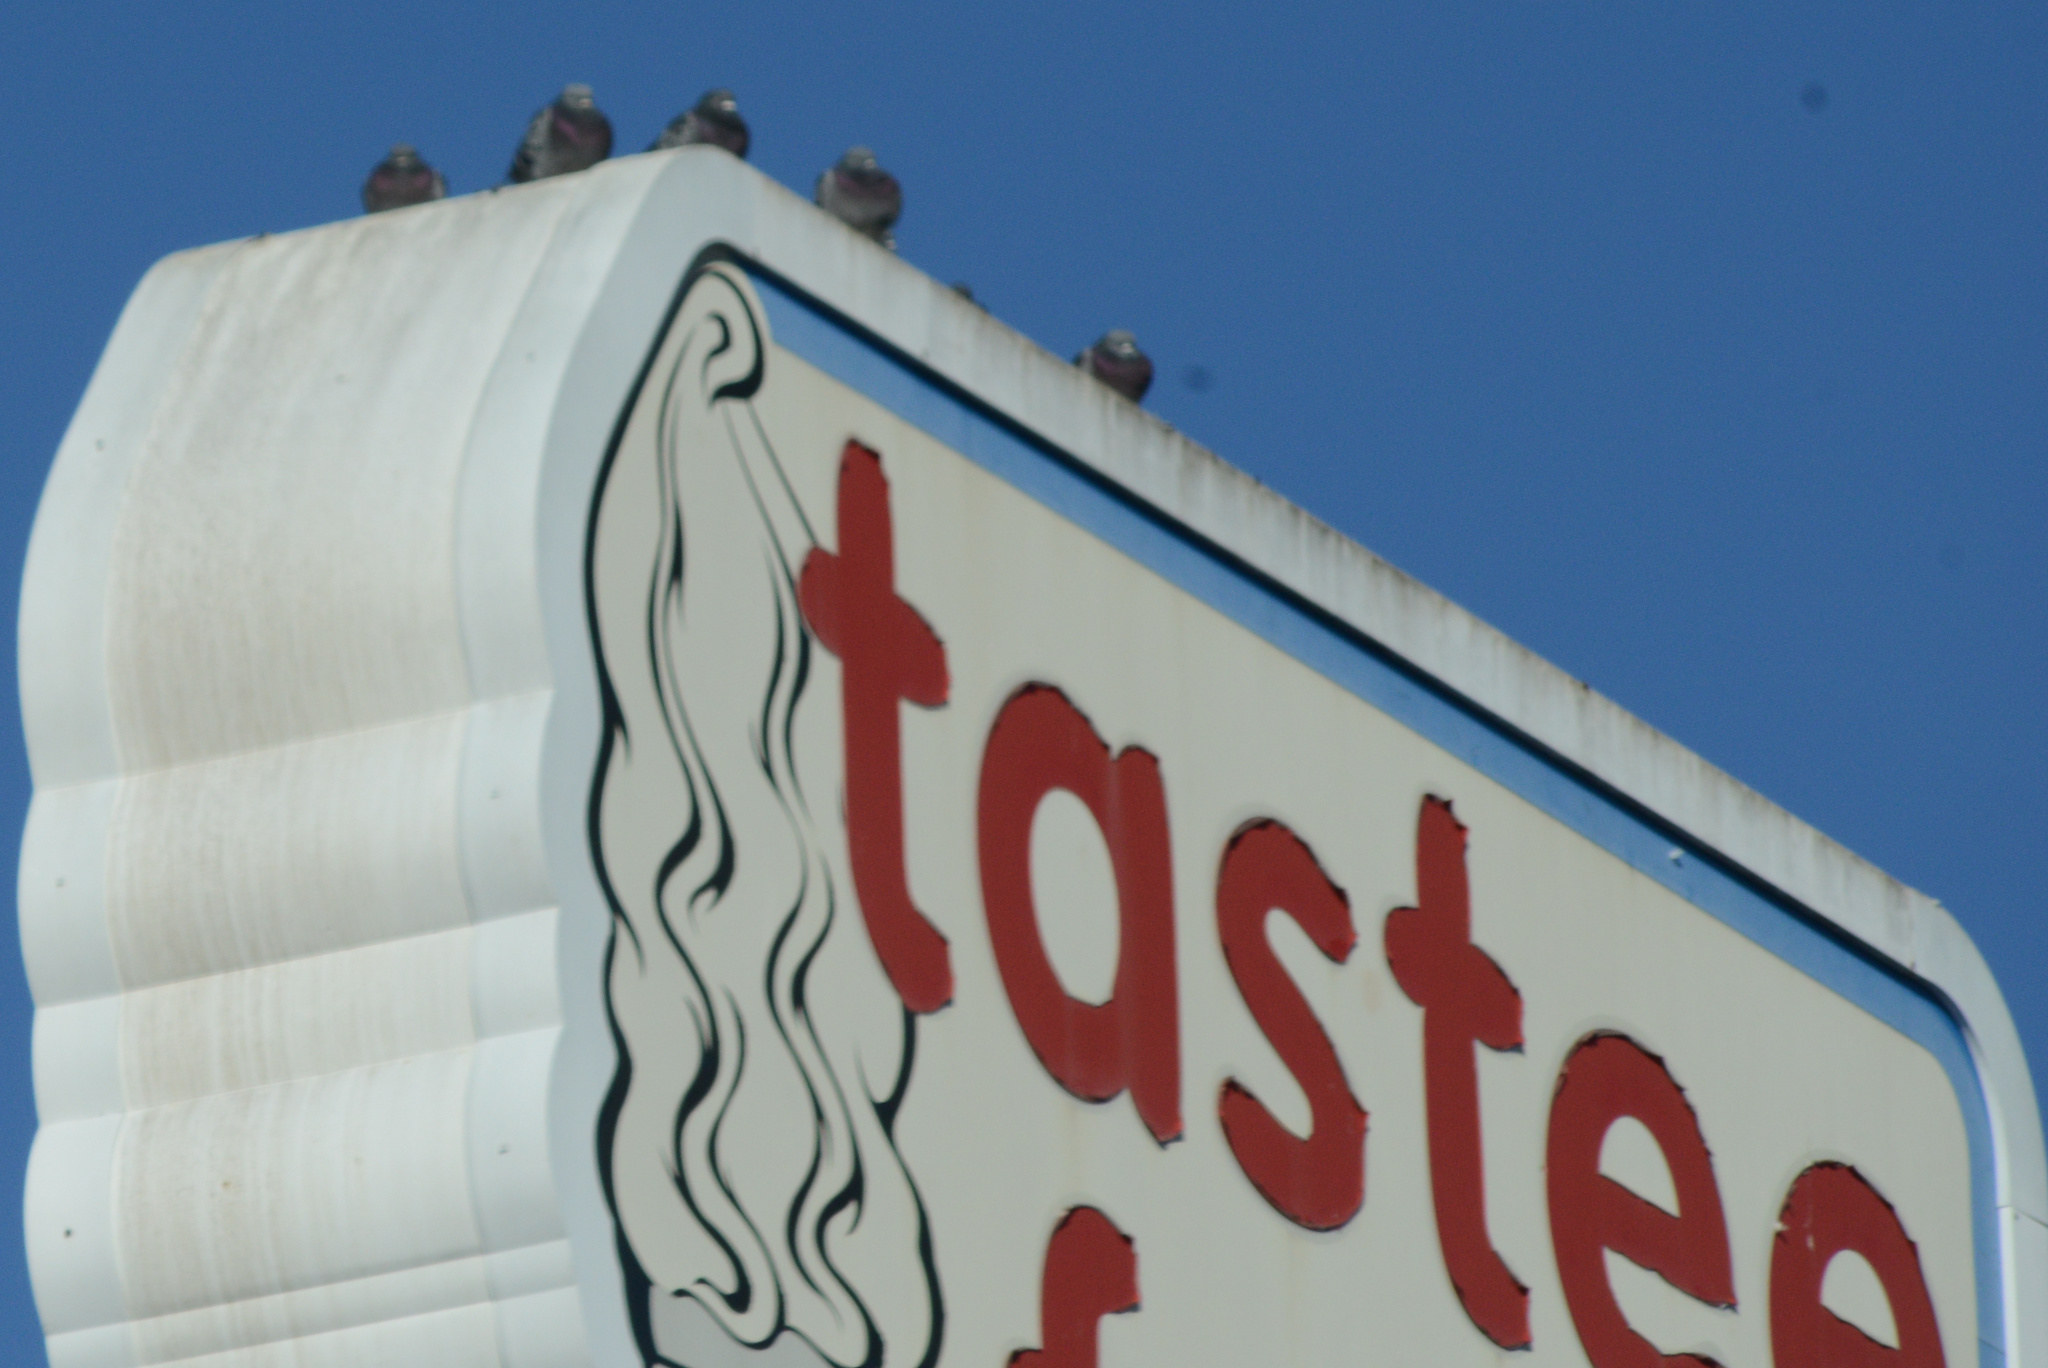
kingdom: Animalia
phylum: Chordata
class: Aves
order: Columbiformes
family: Columbidae
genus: Columba
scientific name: Columba livia
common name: Rock pigeon
